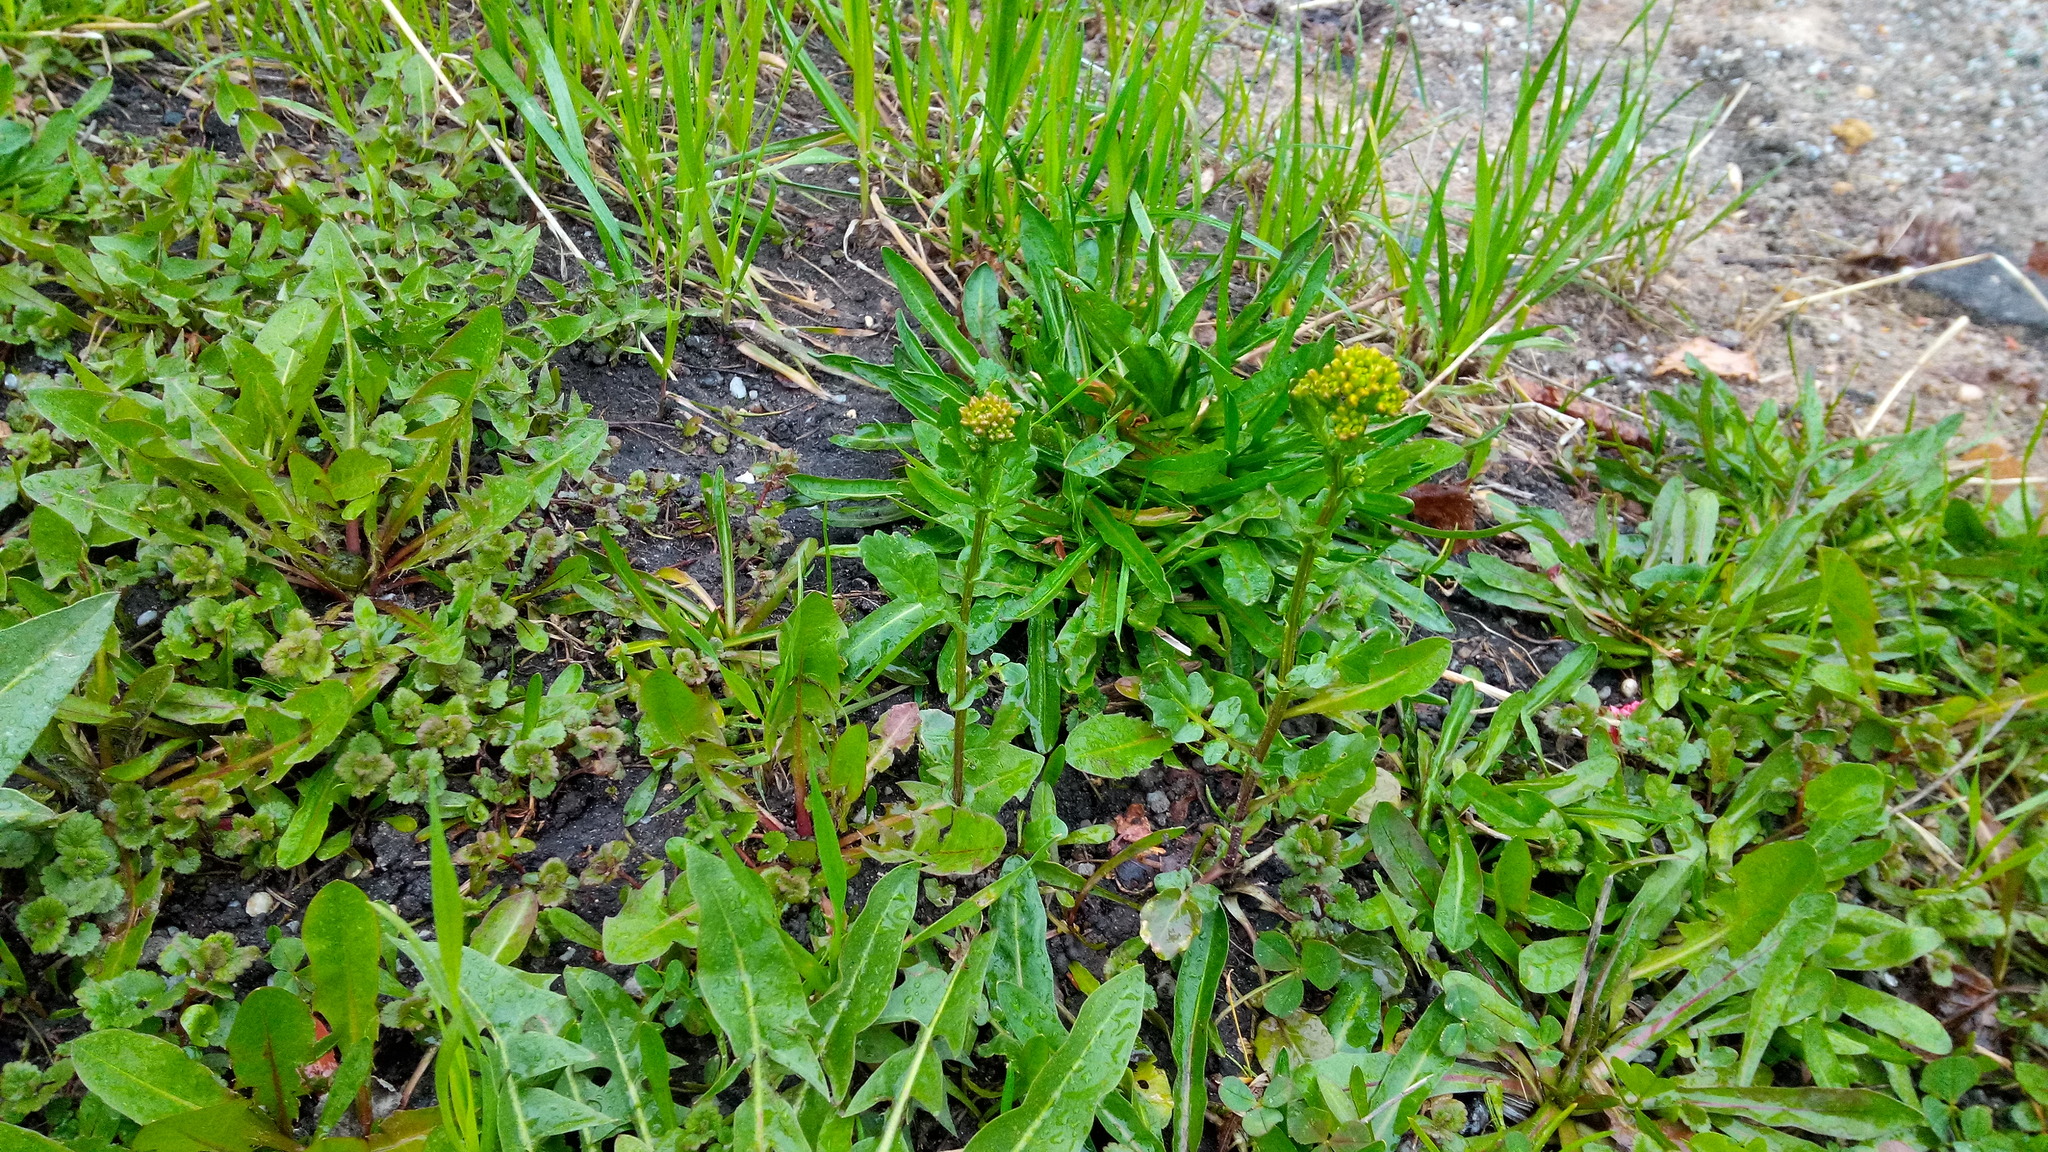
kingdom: Plantae
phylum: Tracheophyta
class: Magnoliopsida
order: Brassicales
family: Brassicaceae
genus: Barbarea
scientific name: Barbarea vulgaris
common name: Cressy-greens
